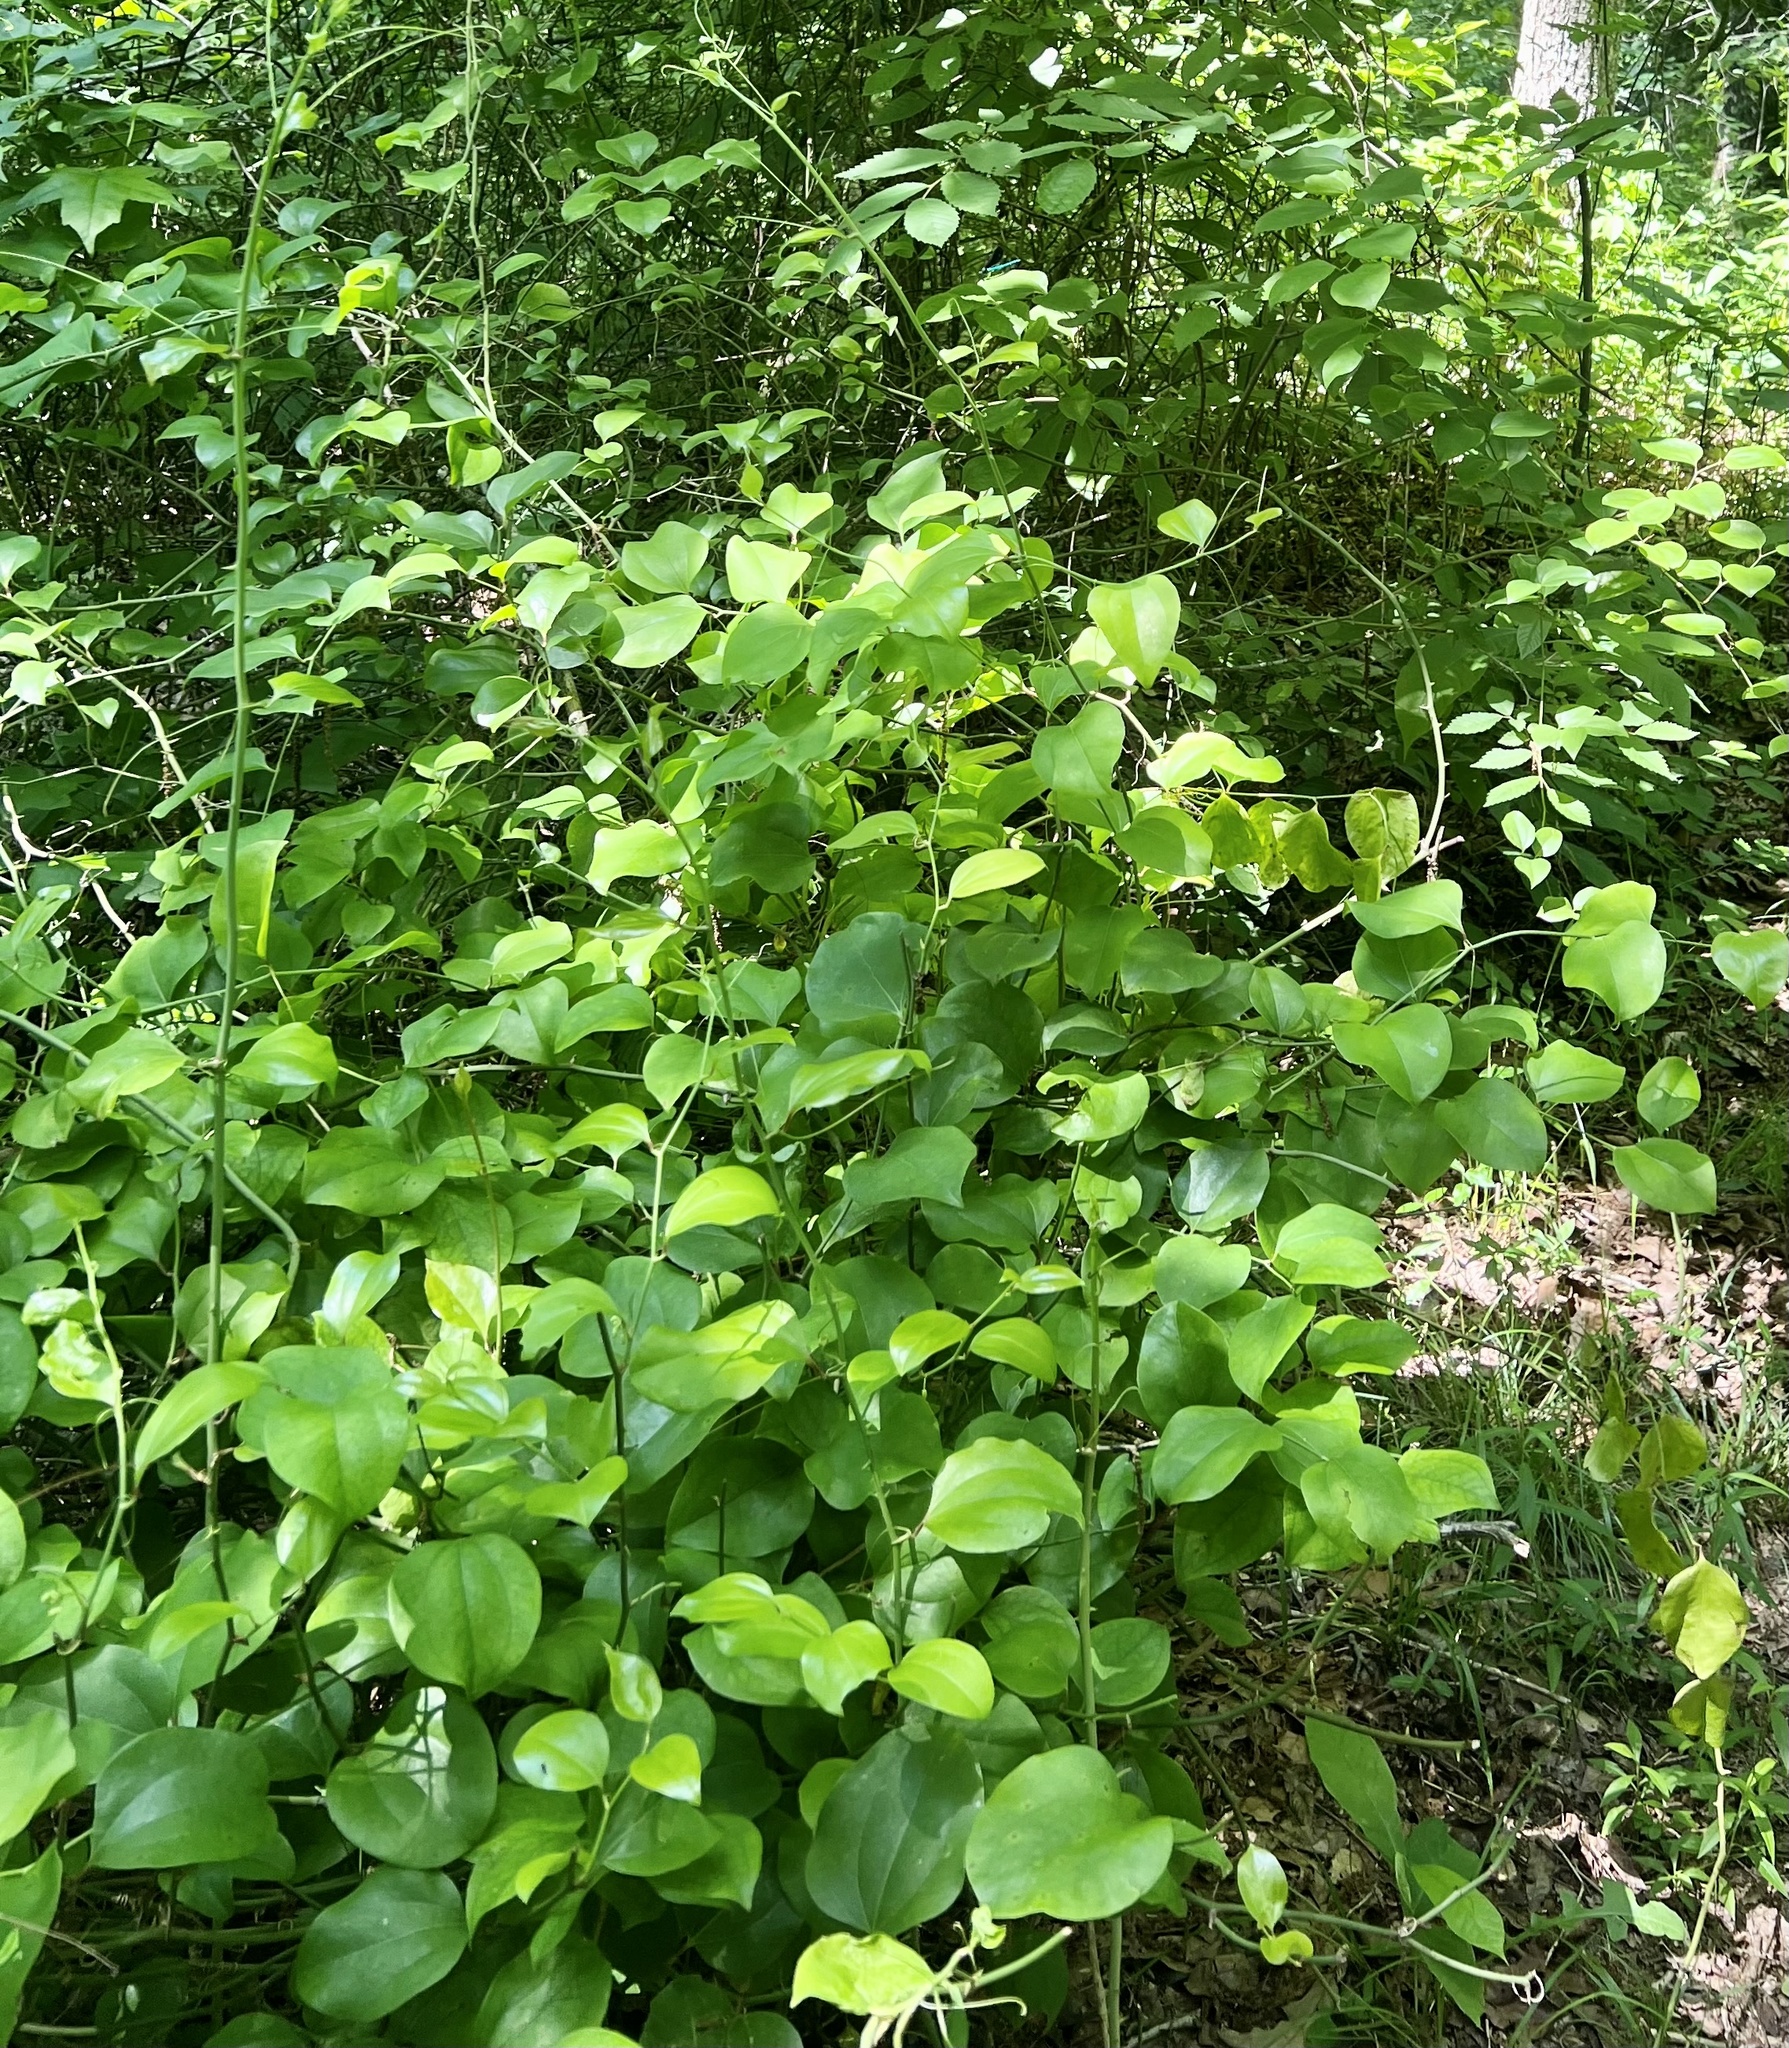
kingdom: Plantae
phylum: Tracheophyta
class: Liliopsida
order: Liliales
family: Smilacaceae
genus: Smilax
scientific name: Smilax rotundifolia
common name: Bullbriar
